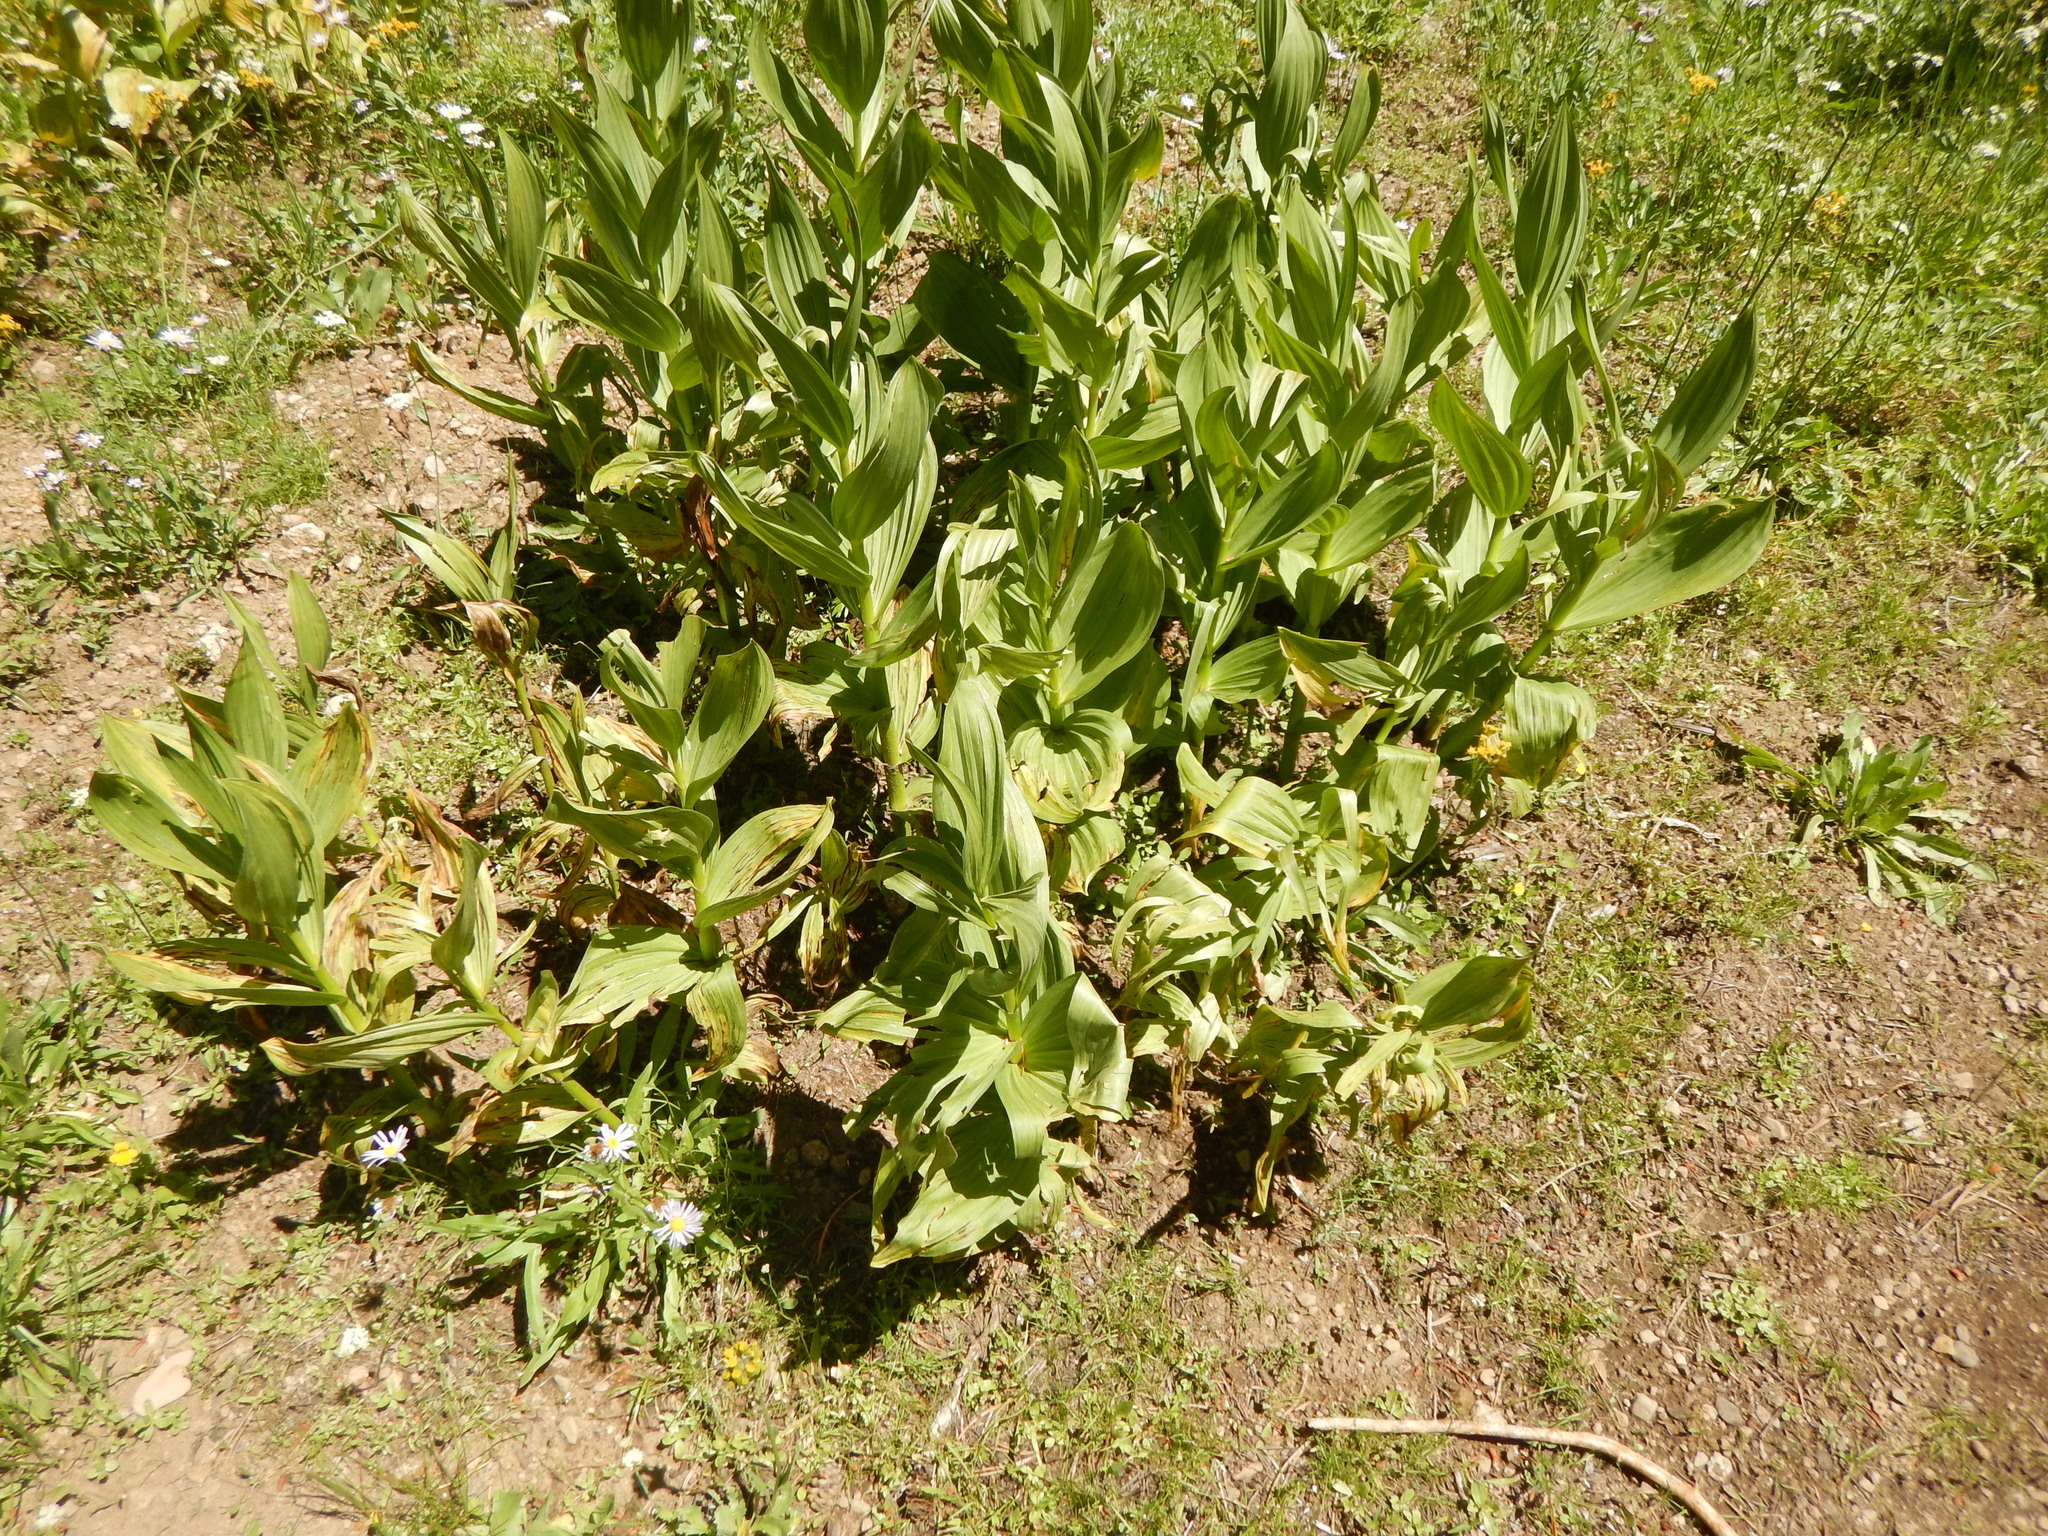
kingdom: Plantae
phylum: Tracheophyta
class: Liliopsida
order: Liliales
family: Melanthiaceae
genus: Veratrum
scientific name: Veratrum californicum
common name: California veratrum
